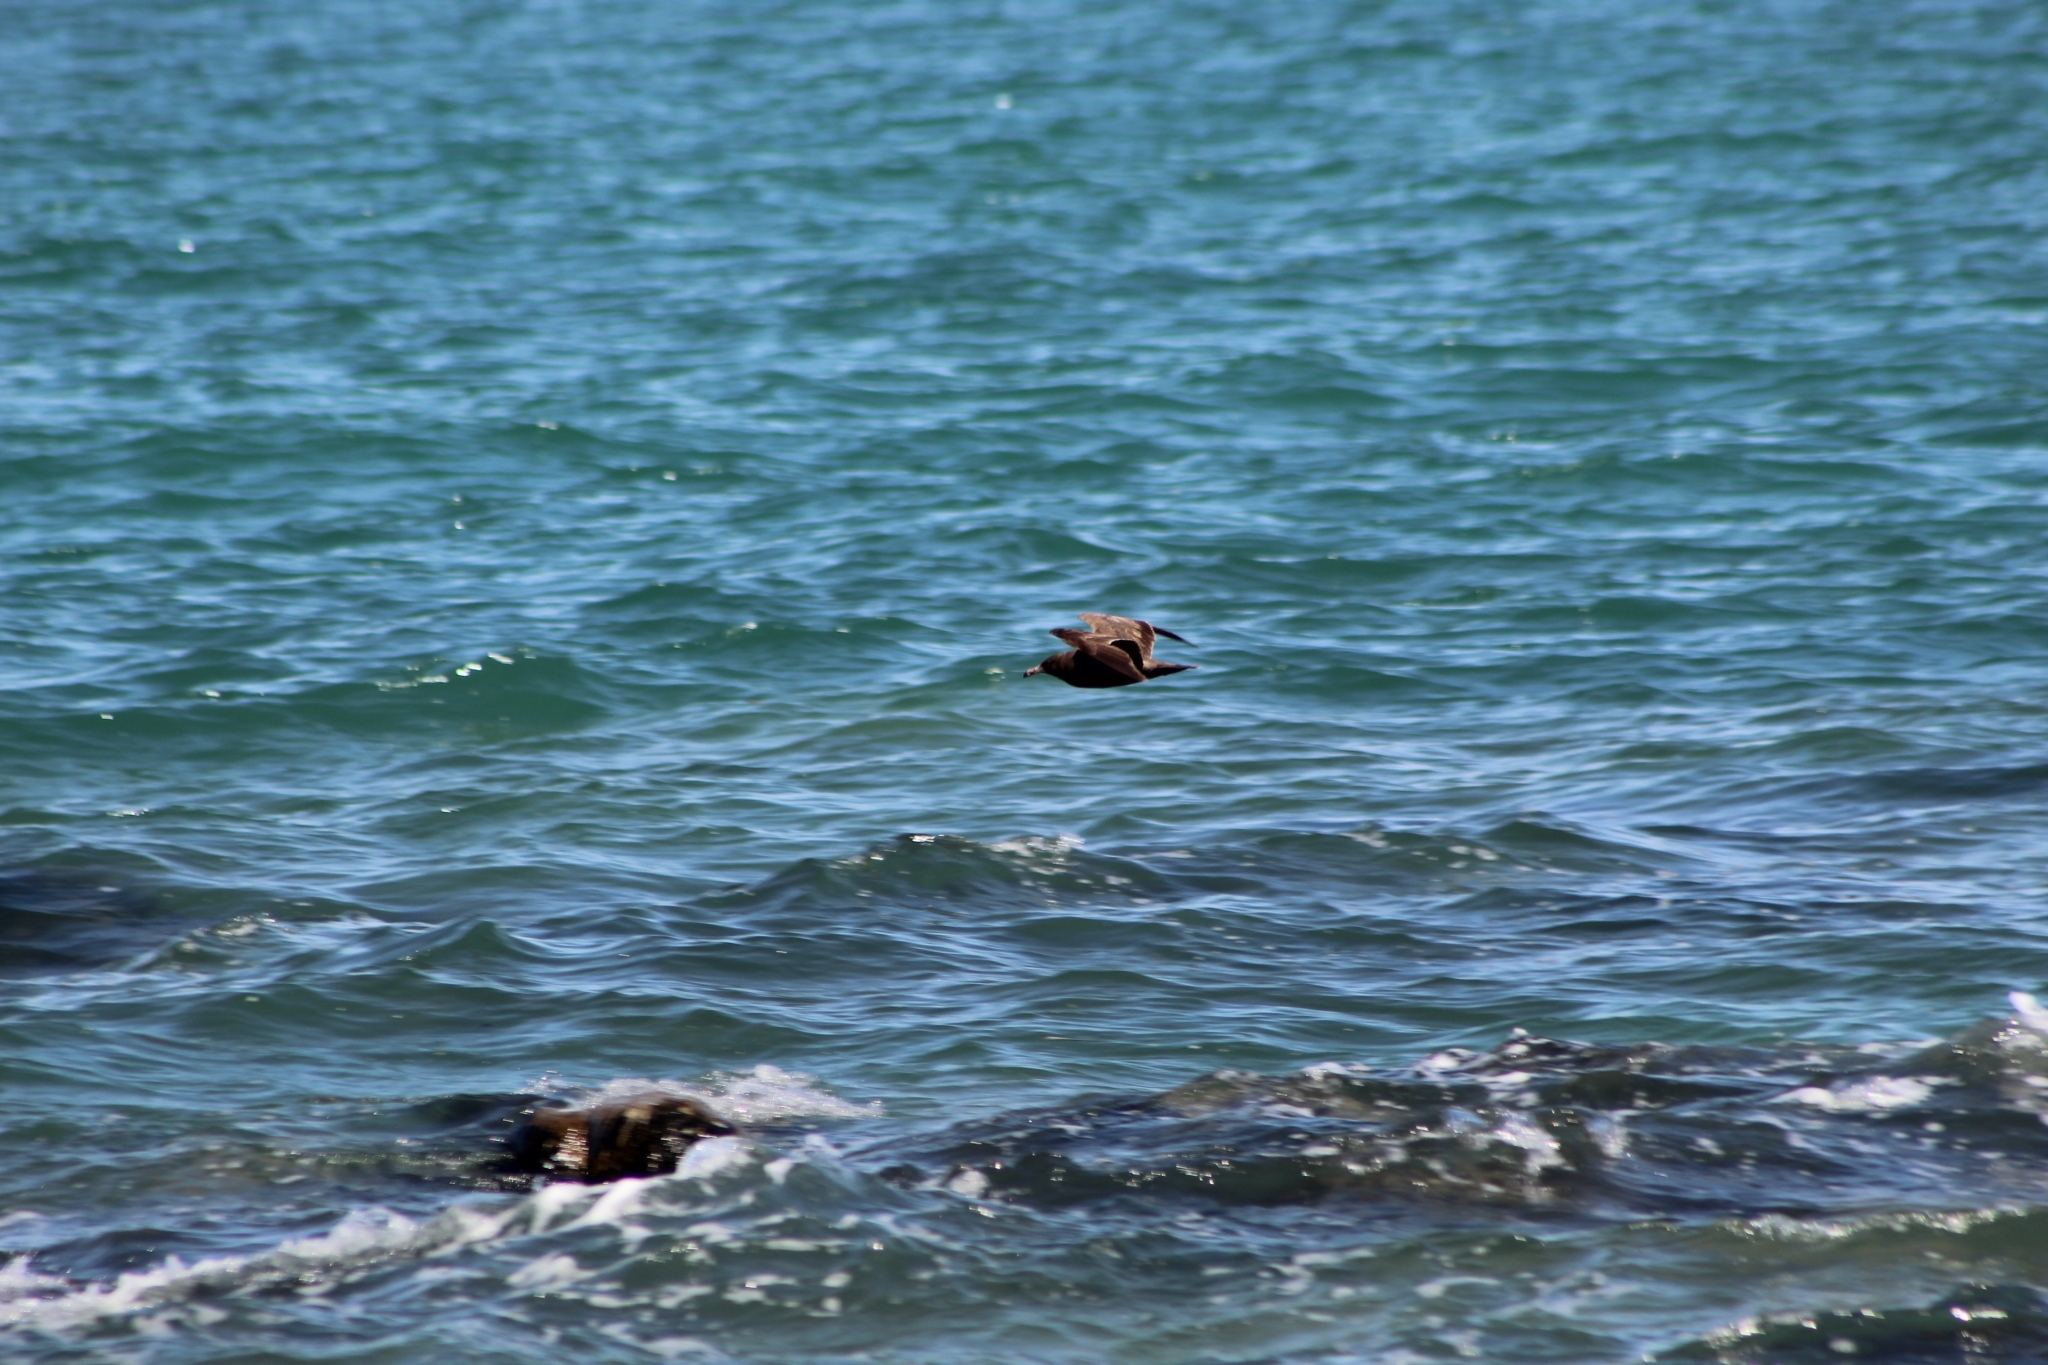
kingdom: Animalia
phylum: Chordata
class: Aves
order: Charadriiformes
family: Laridae
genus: Larus
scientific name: Larus heermanni
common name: Heermann's gull
